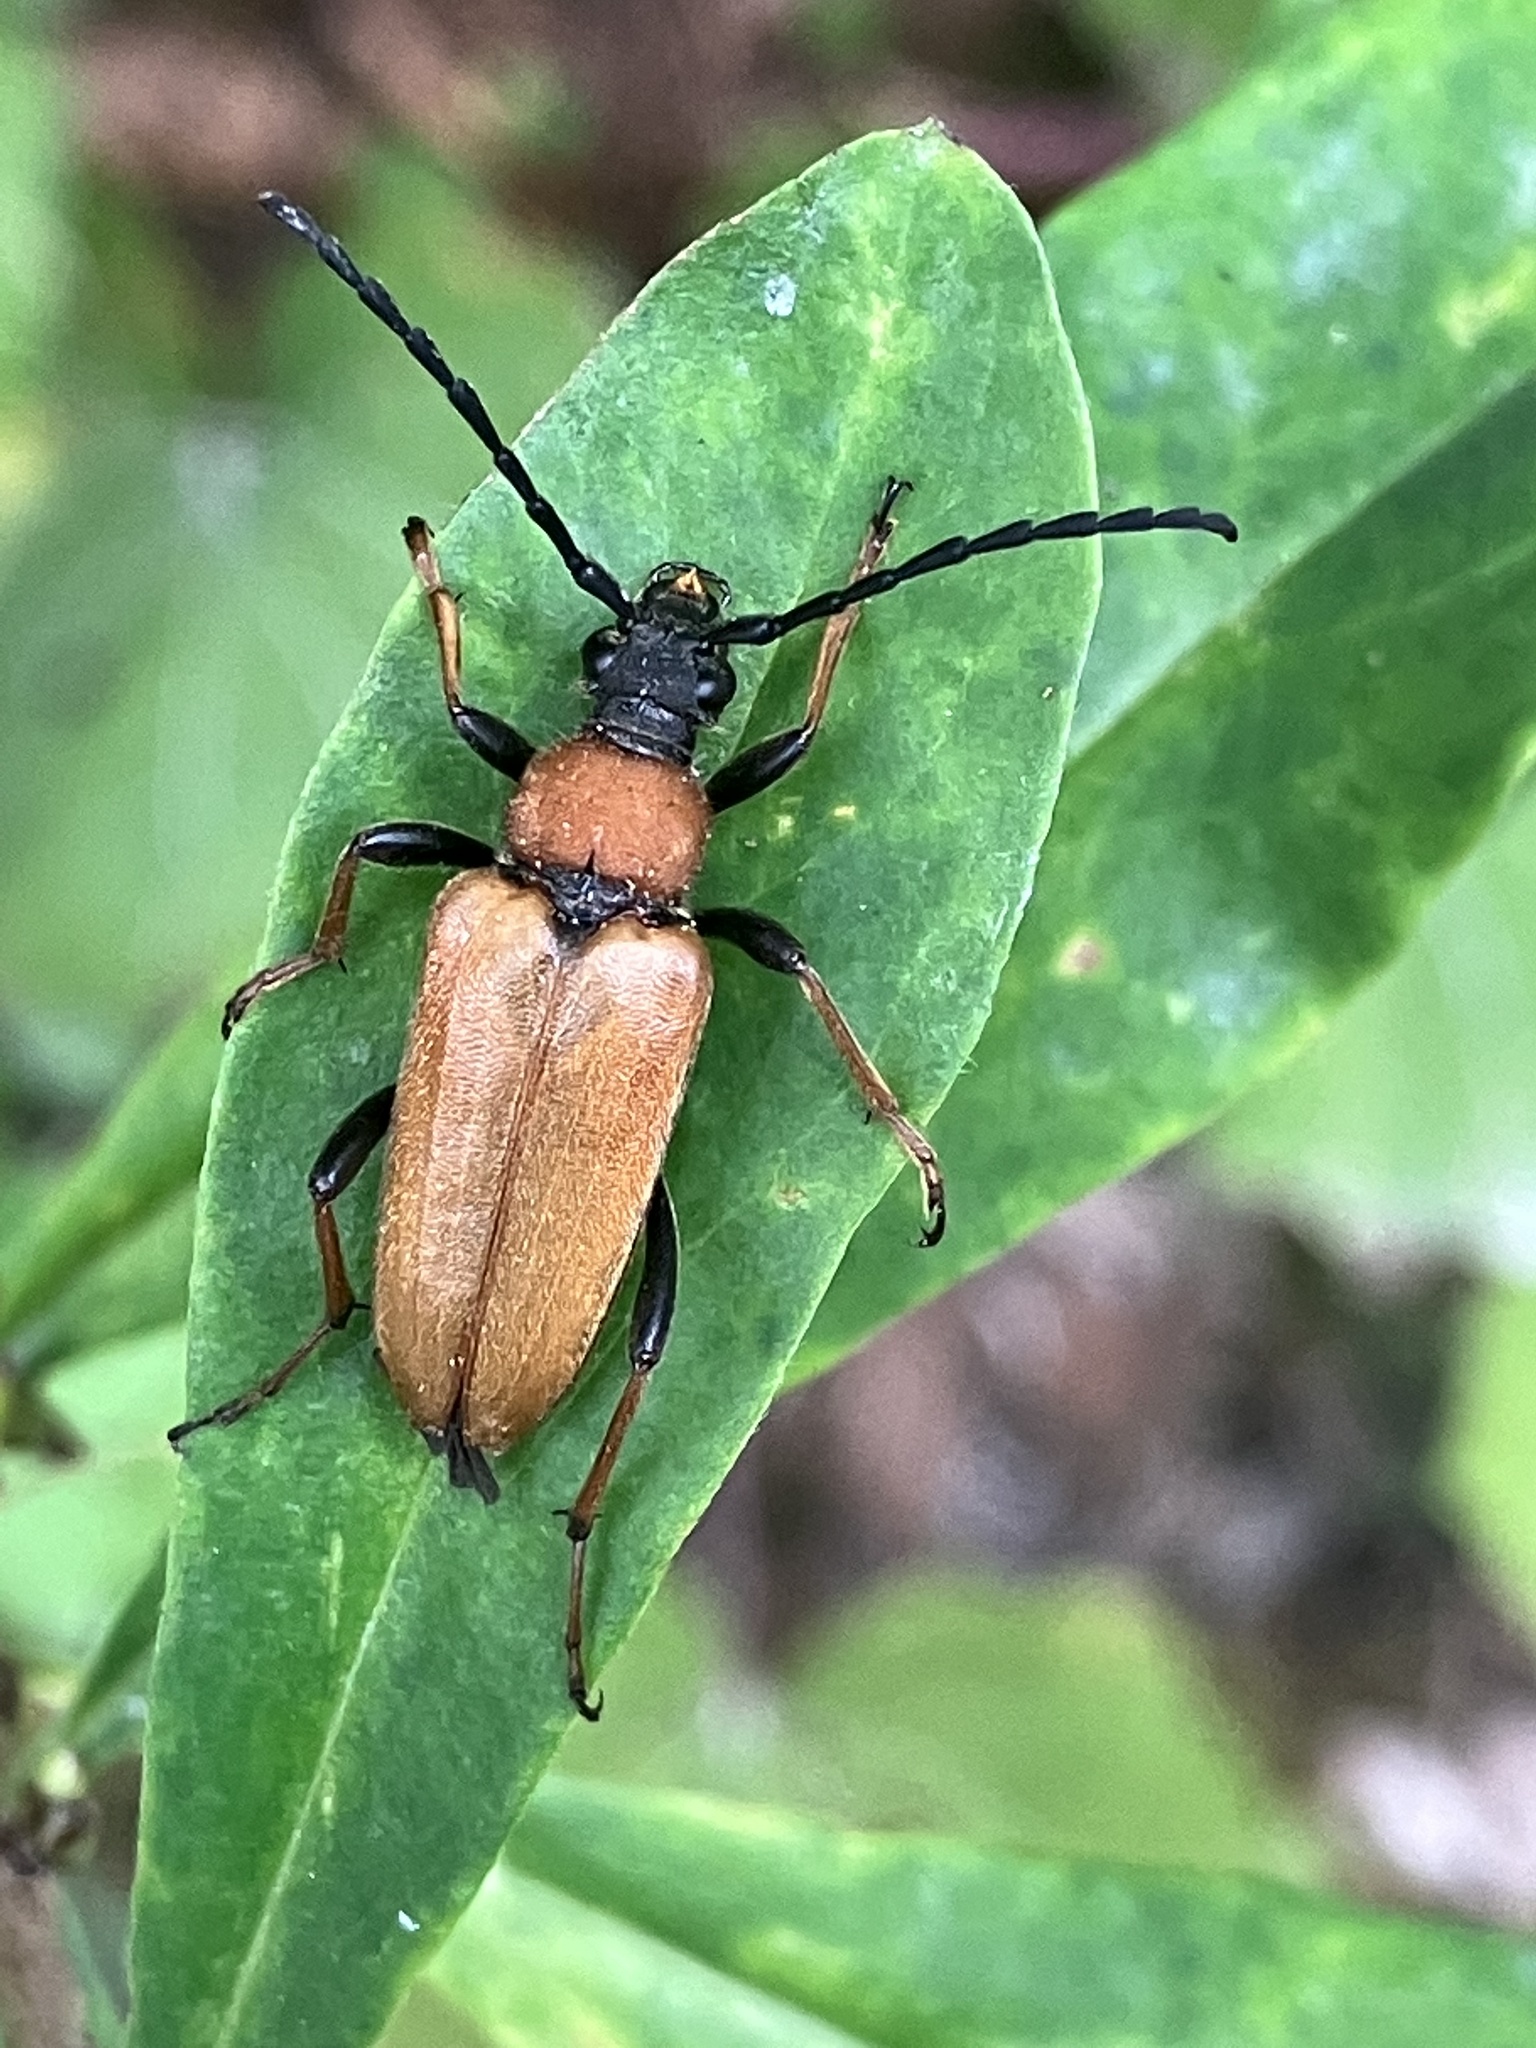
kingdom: Animalia
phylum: Arthropoda
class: Insecta
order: Coleoptera
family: Cerambycidae
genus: Stictoleptura
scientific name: Stictoleptura rubra
